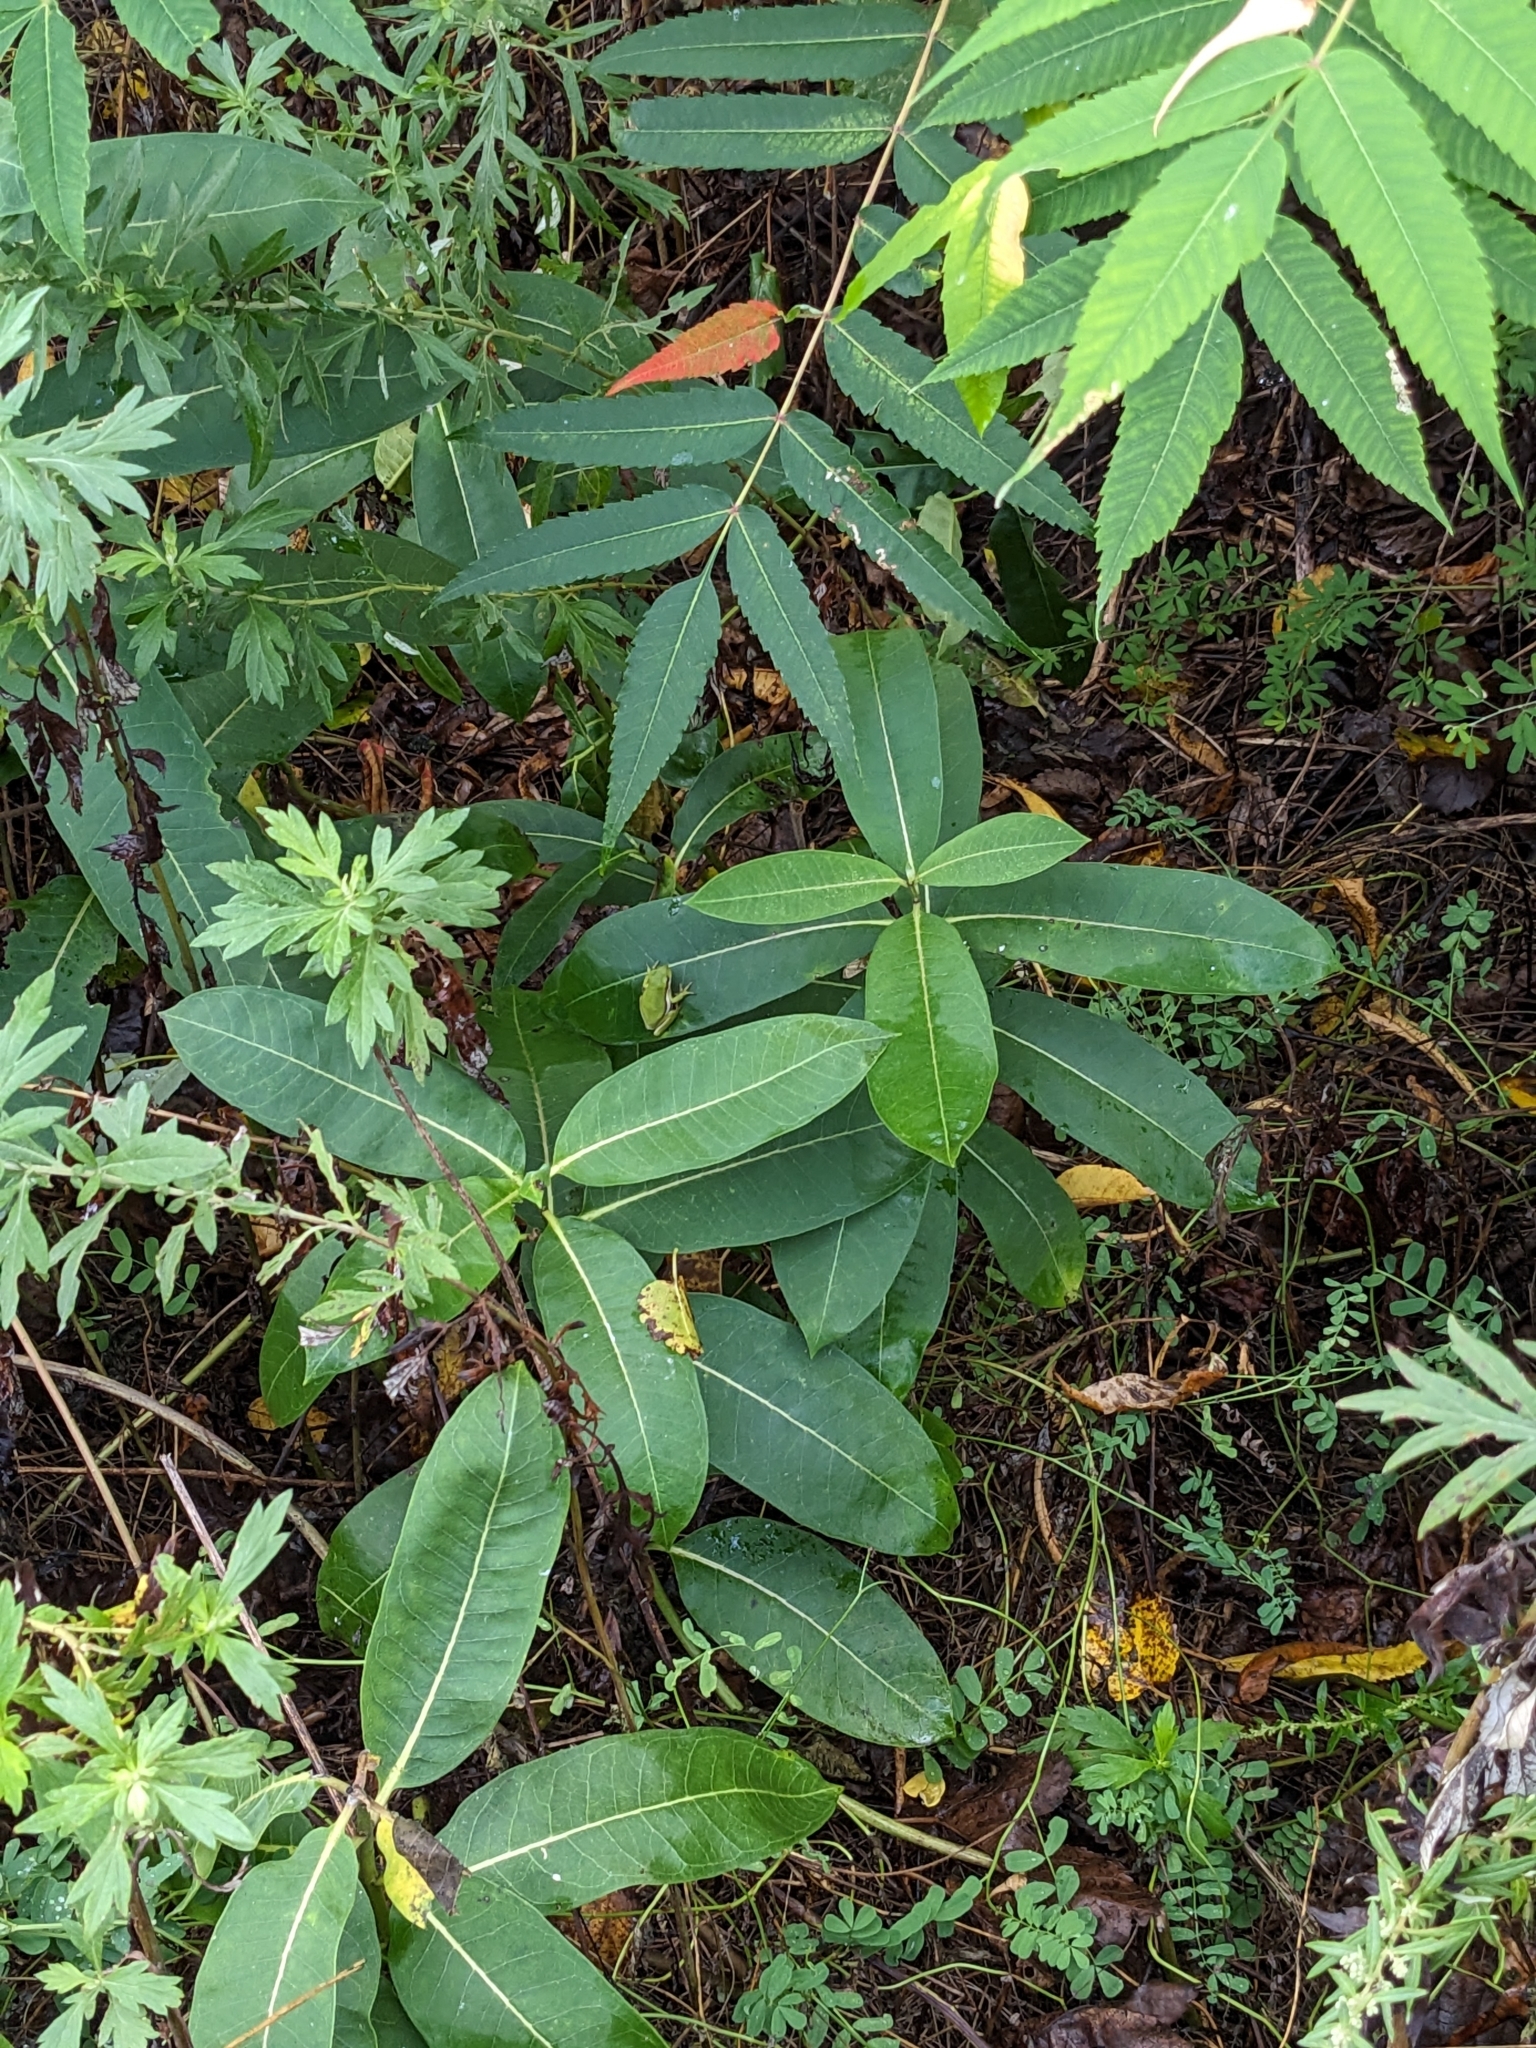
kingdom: Animalia
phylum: Chordata
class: Amphibia
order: Anura
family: Hylidae
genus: Dryophytes
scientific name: Dryophytes cinereus
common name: Green treefrog
